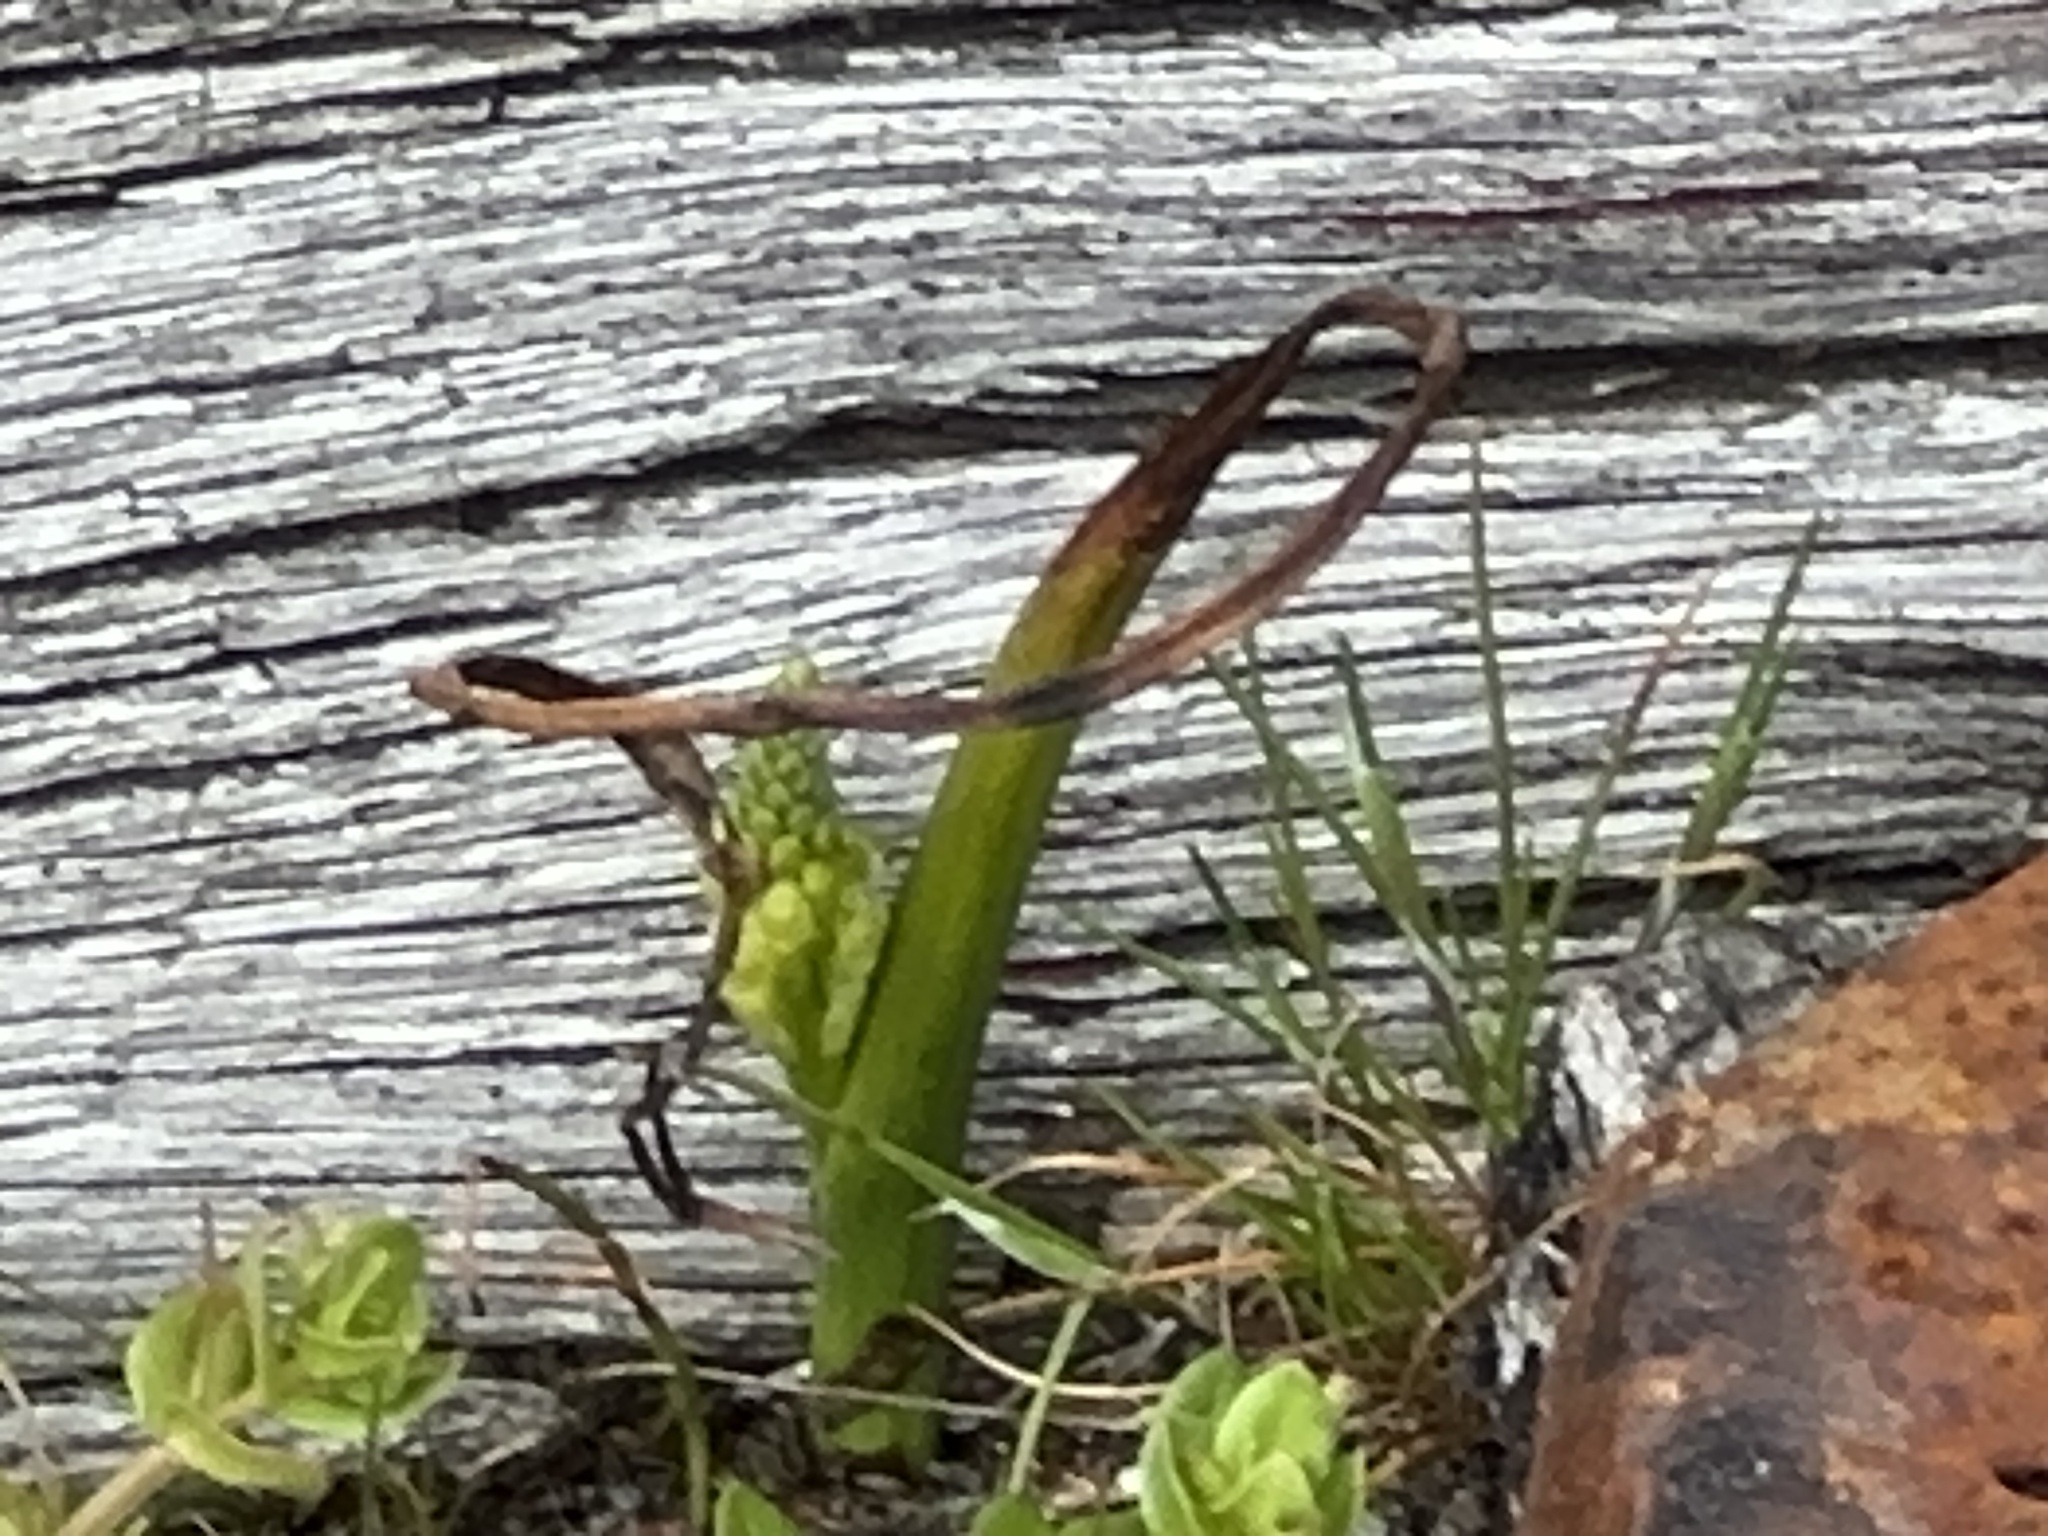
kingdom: Plantae
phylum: Tracheophyta
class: Liliopsida
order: Asparagales
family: Orchidaceae
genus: Microtis
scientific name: Microtis unifolia
